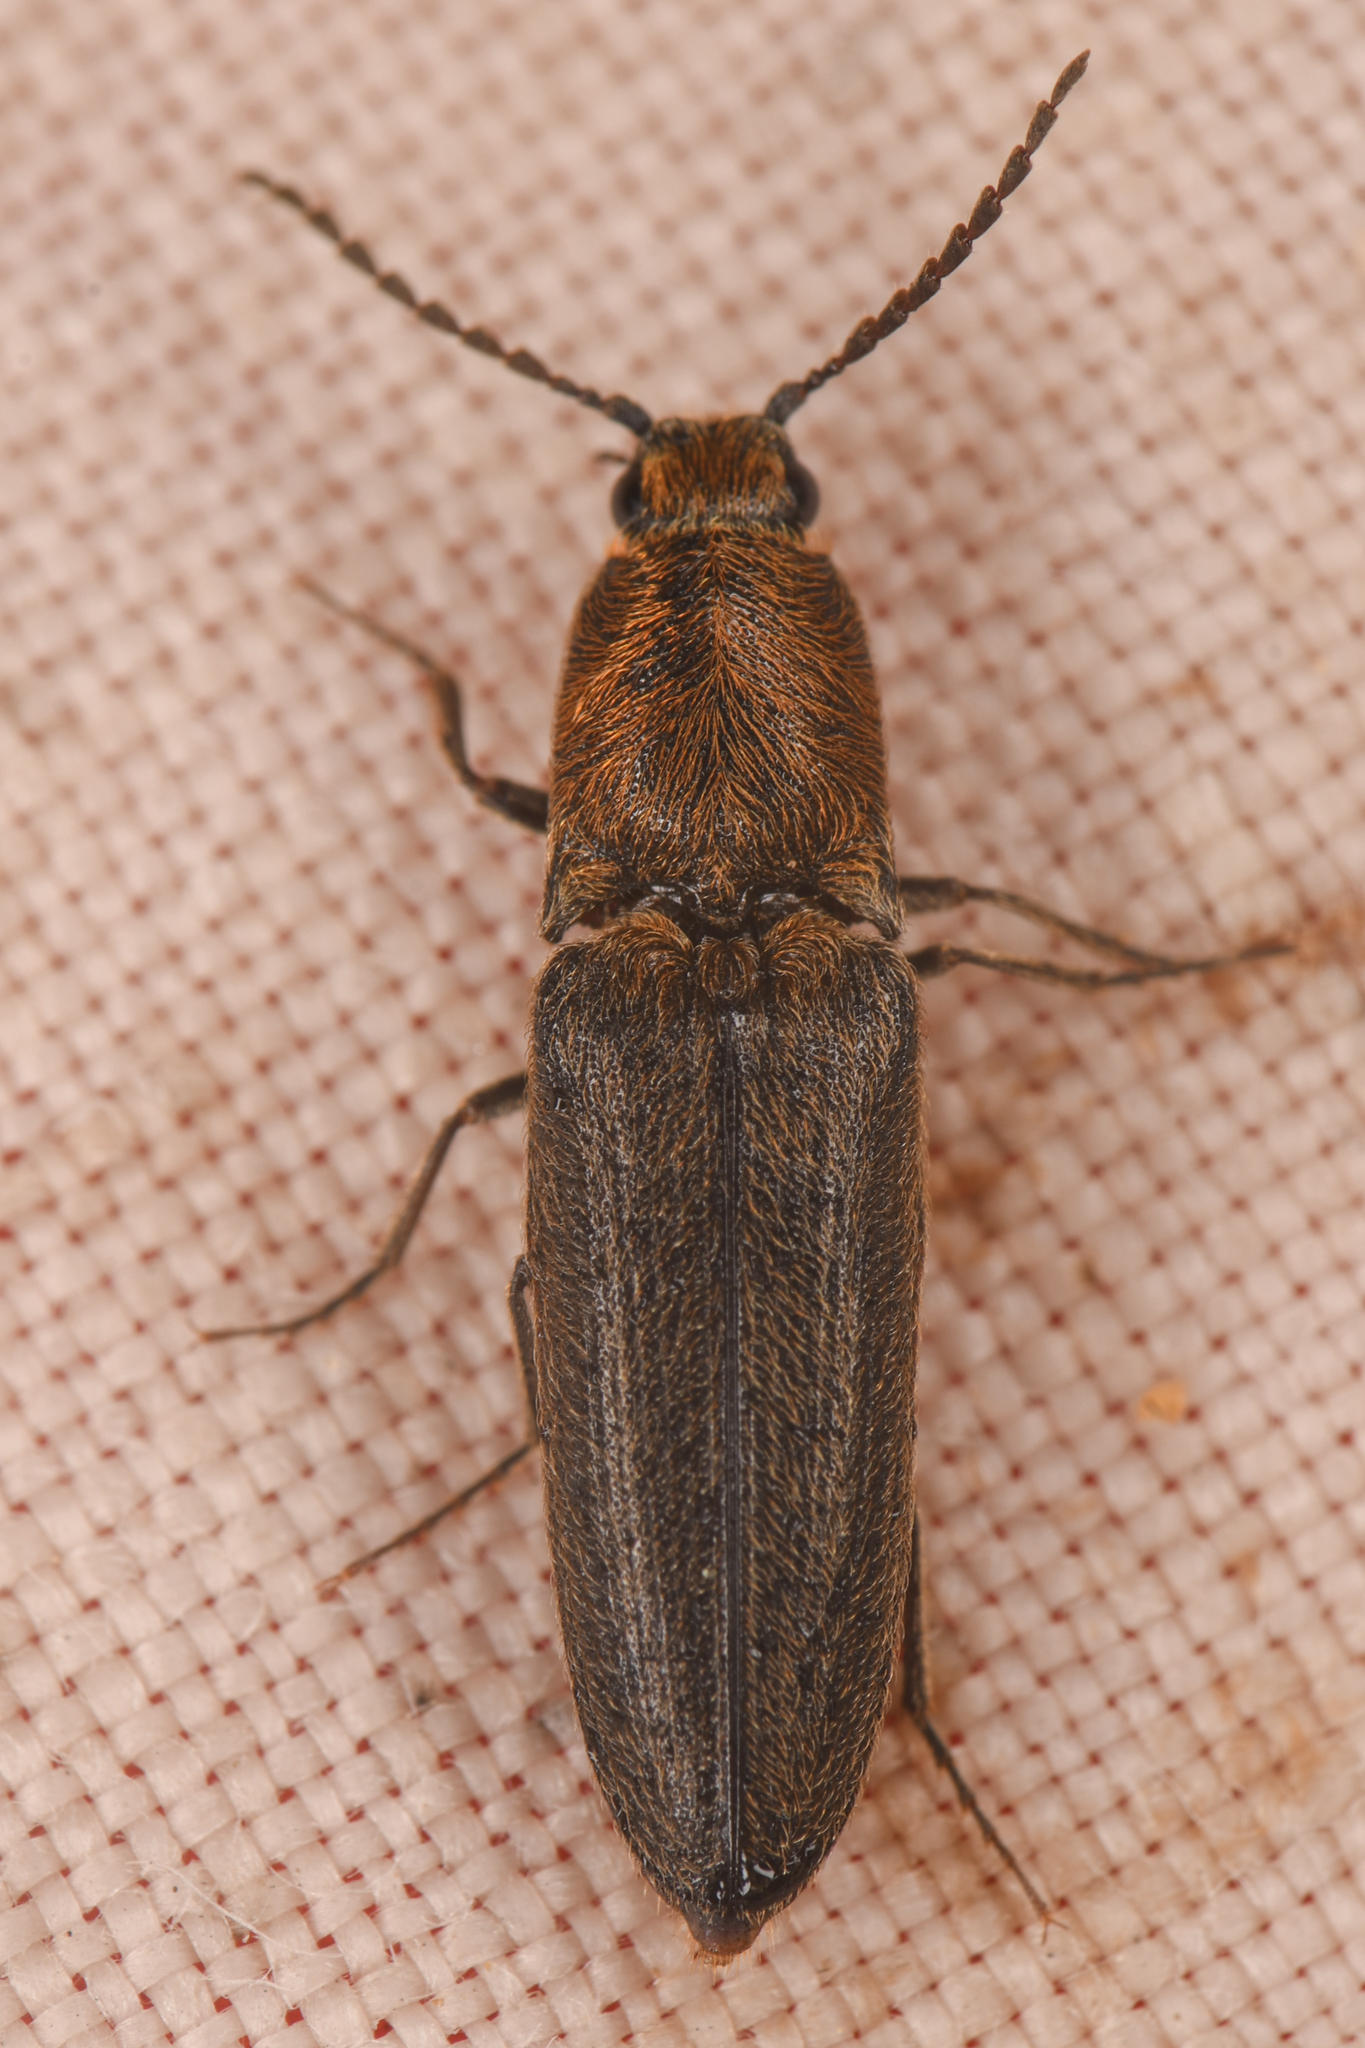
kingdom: Animalia
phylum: Arthropoda
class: Insecta
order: Coleoptera
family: Elateridae
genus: Gambrinus
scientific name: Gambrinus
